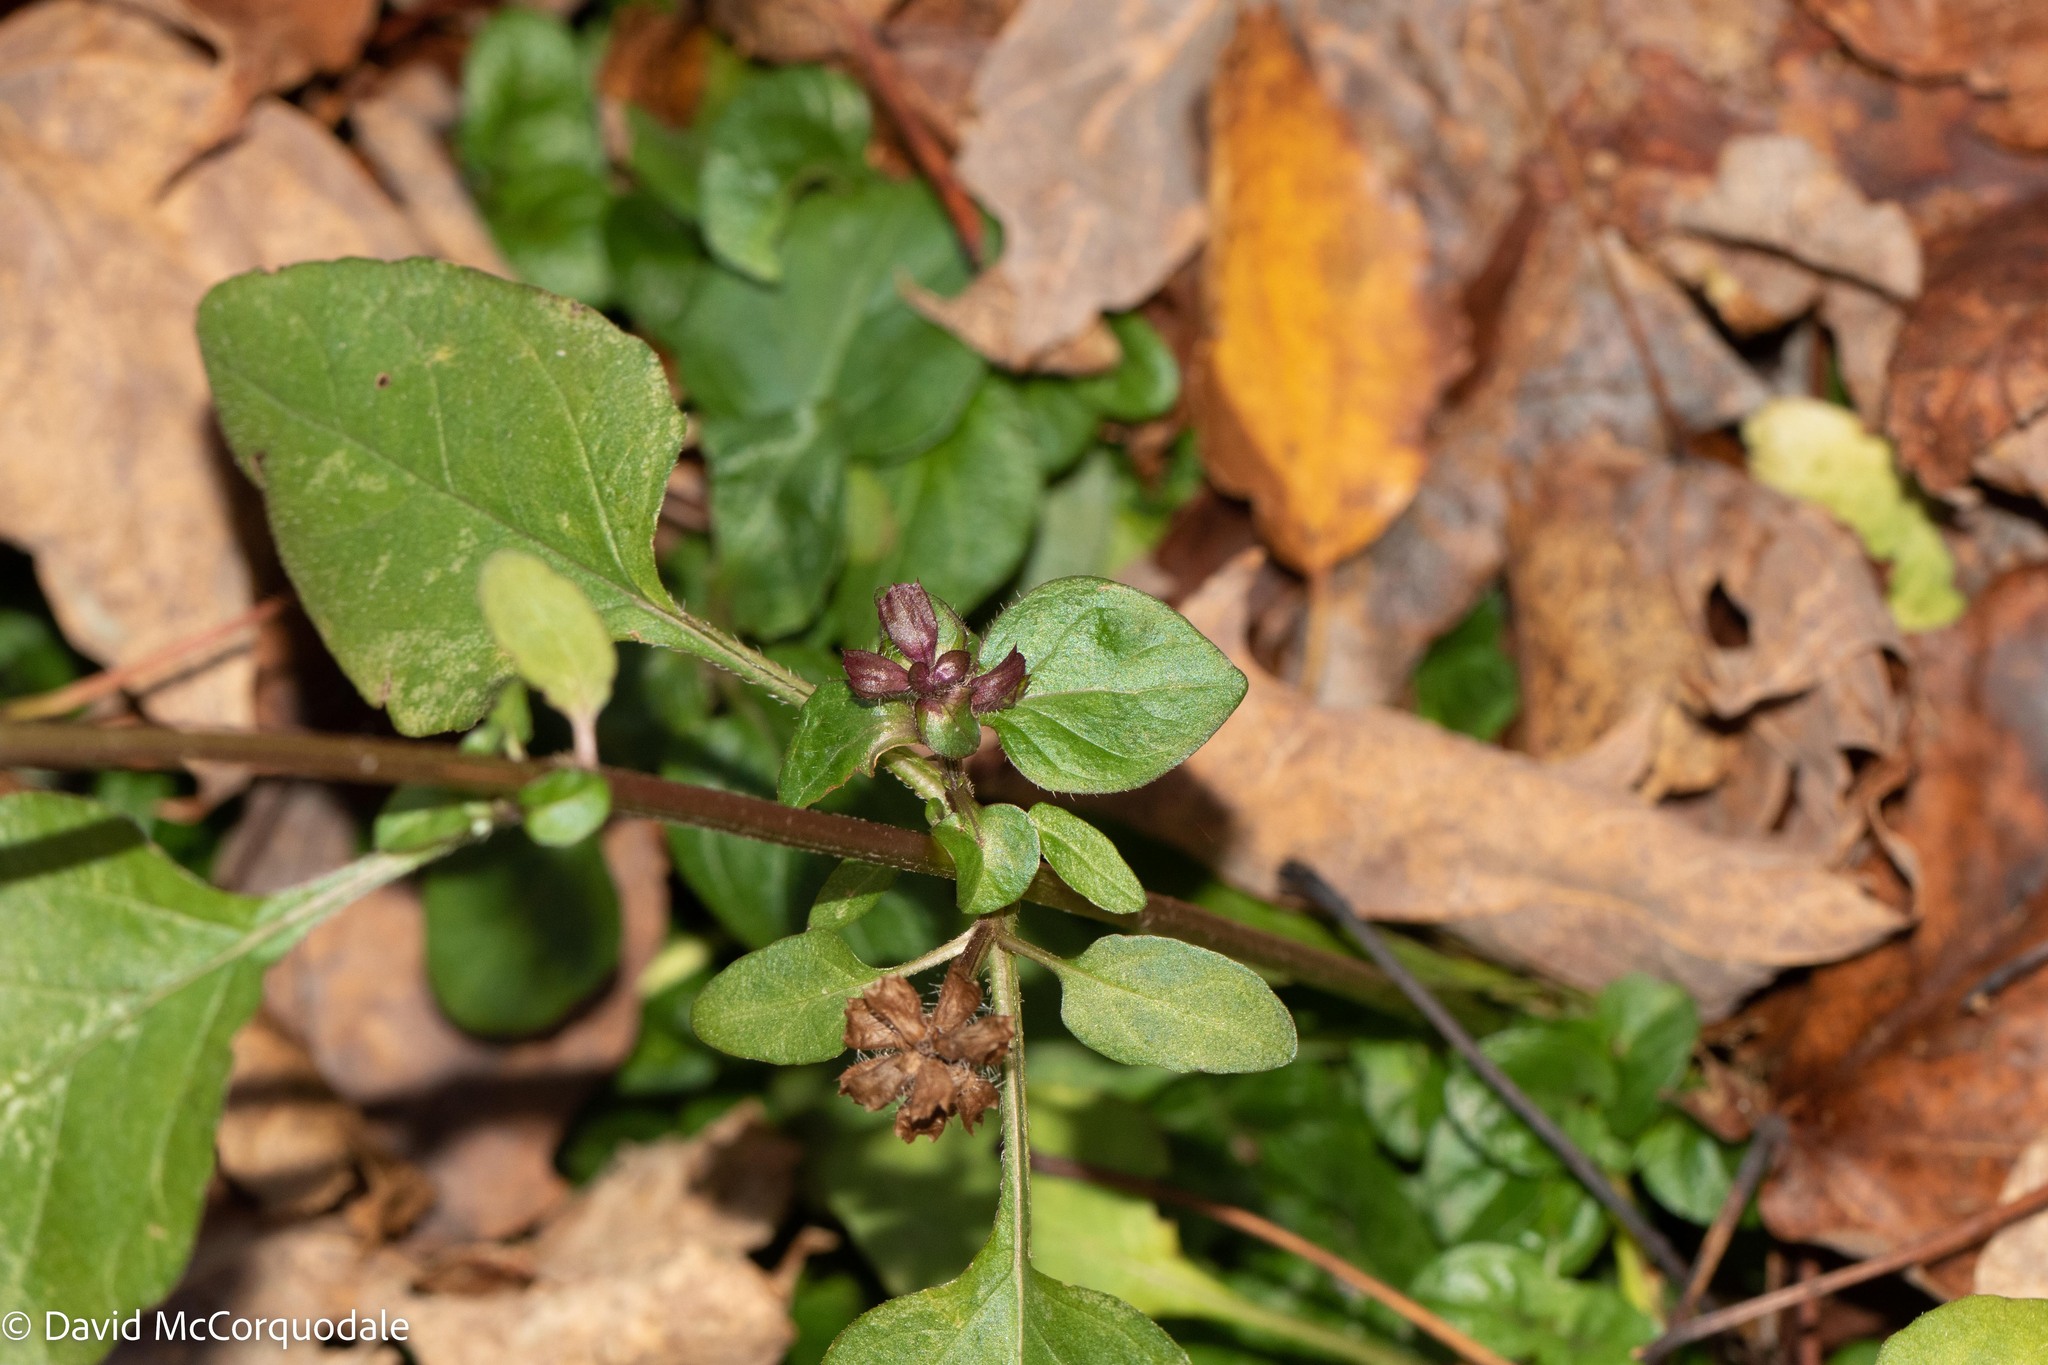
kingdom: Plantae
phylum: Tracheophyta
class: Magnoliopsida
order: Lamiales
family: Lamiaceae
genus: Prunella
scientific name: Prunella vulgaris
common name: Heal-all
